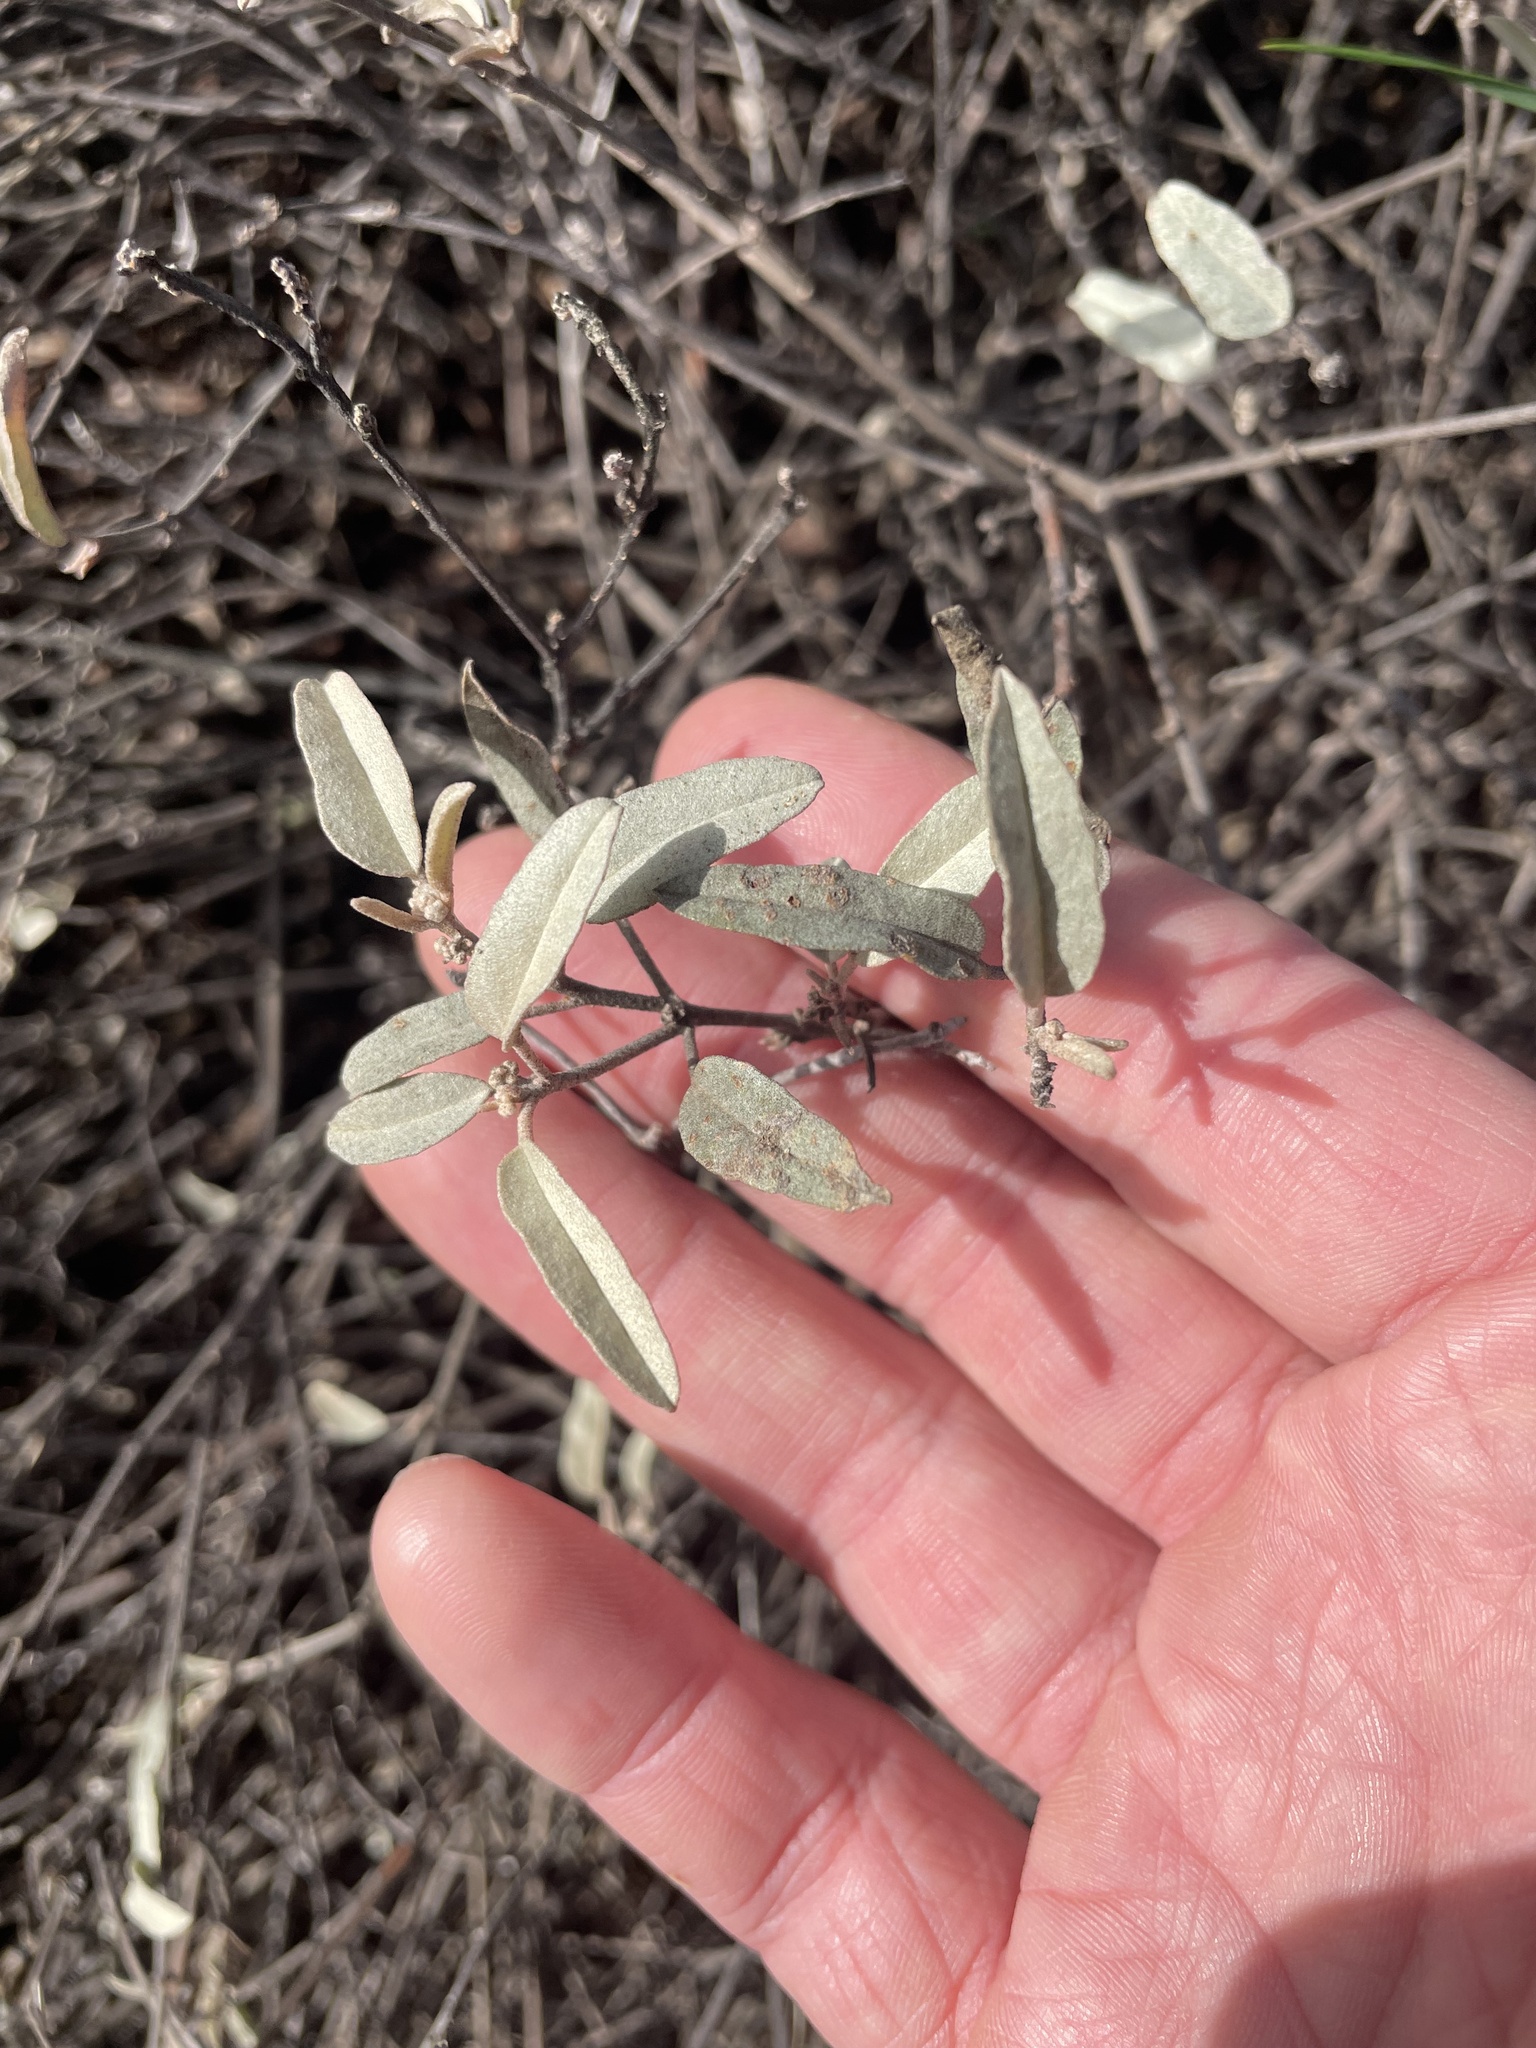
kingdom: Plantae
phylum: Tracheophyta
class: Magnoliopsida
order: Malpighiales
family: Euphorbiaceae
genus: Croton
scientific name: Croton californicus
